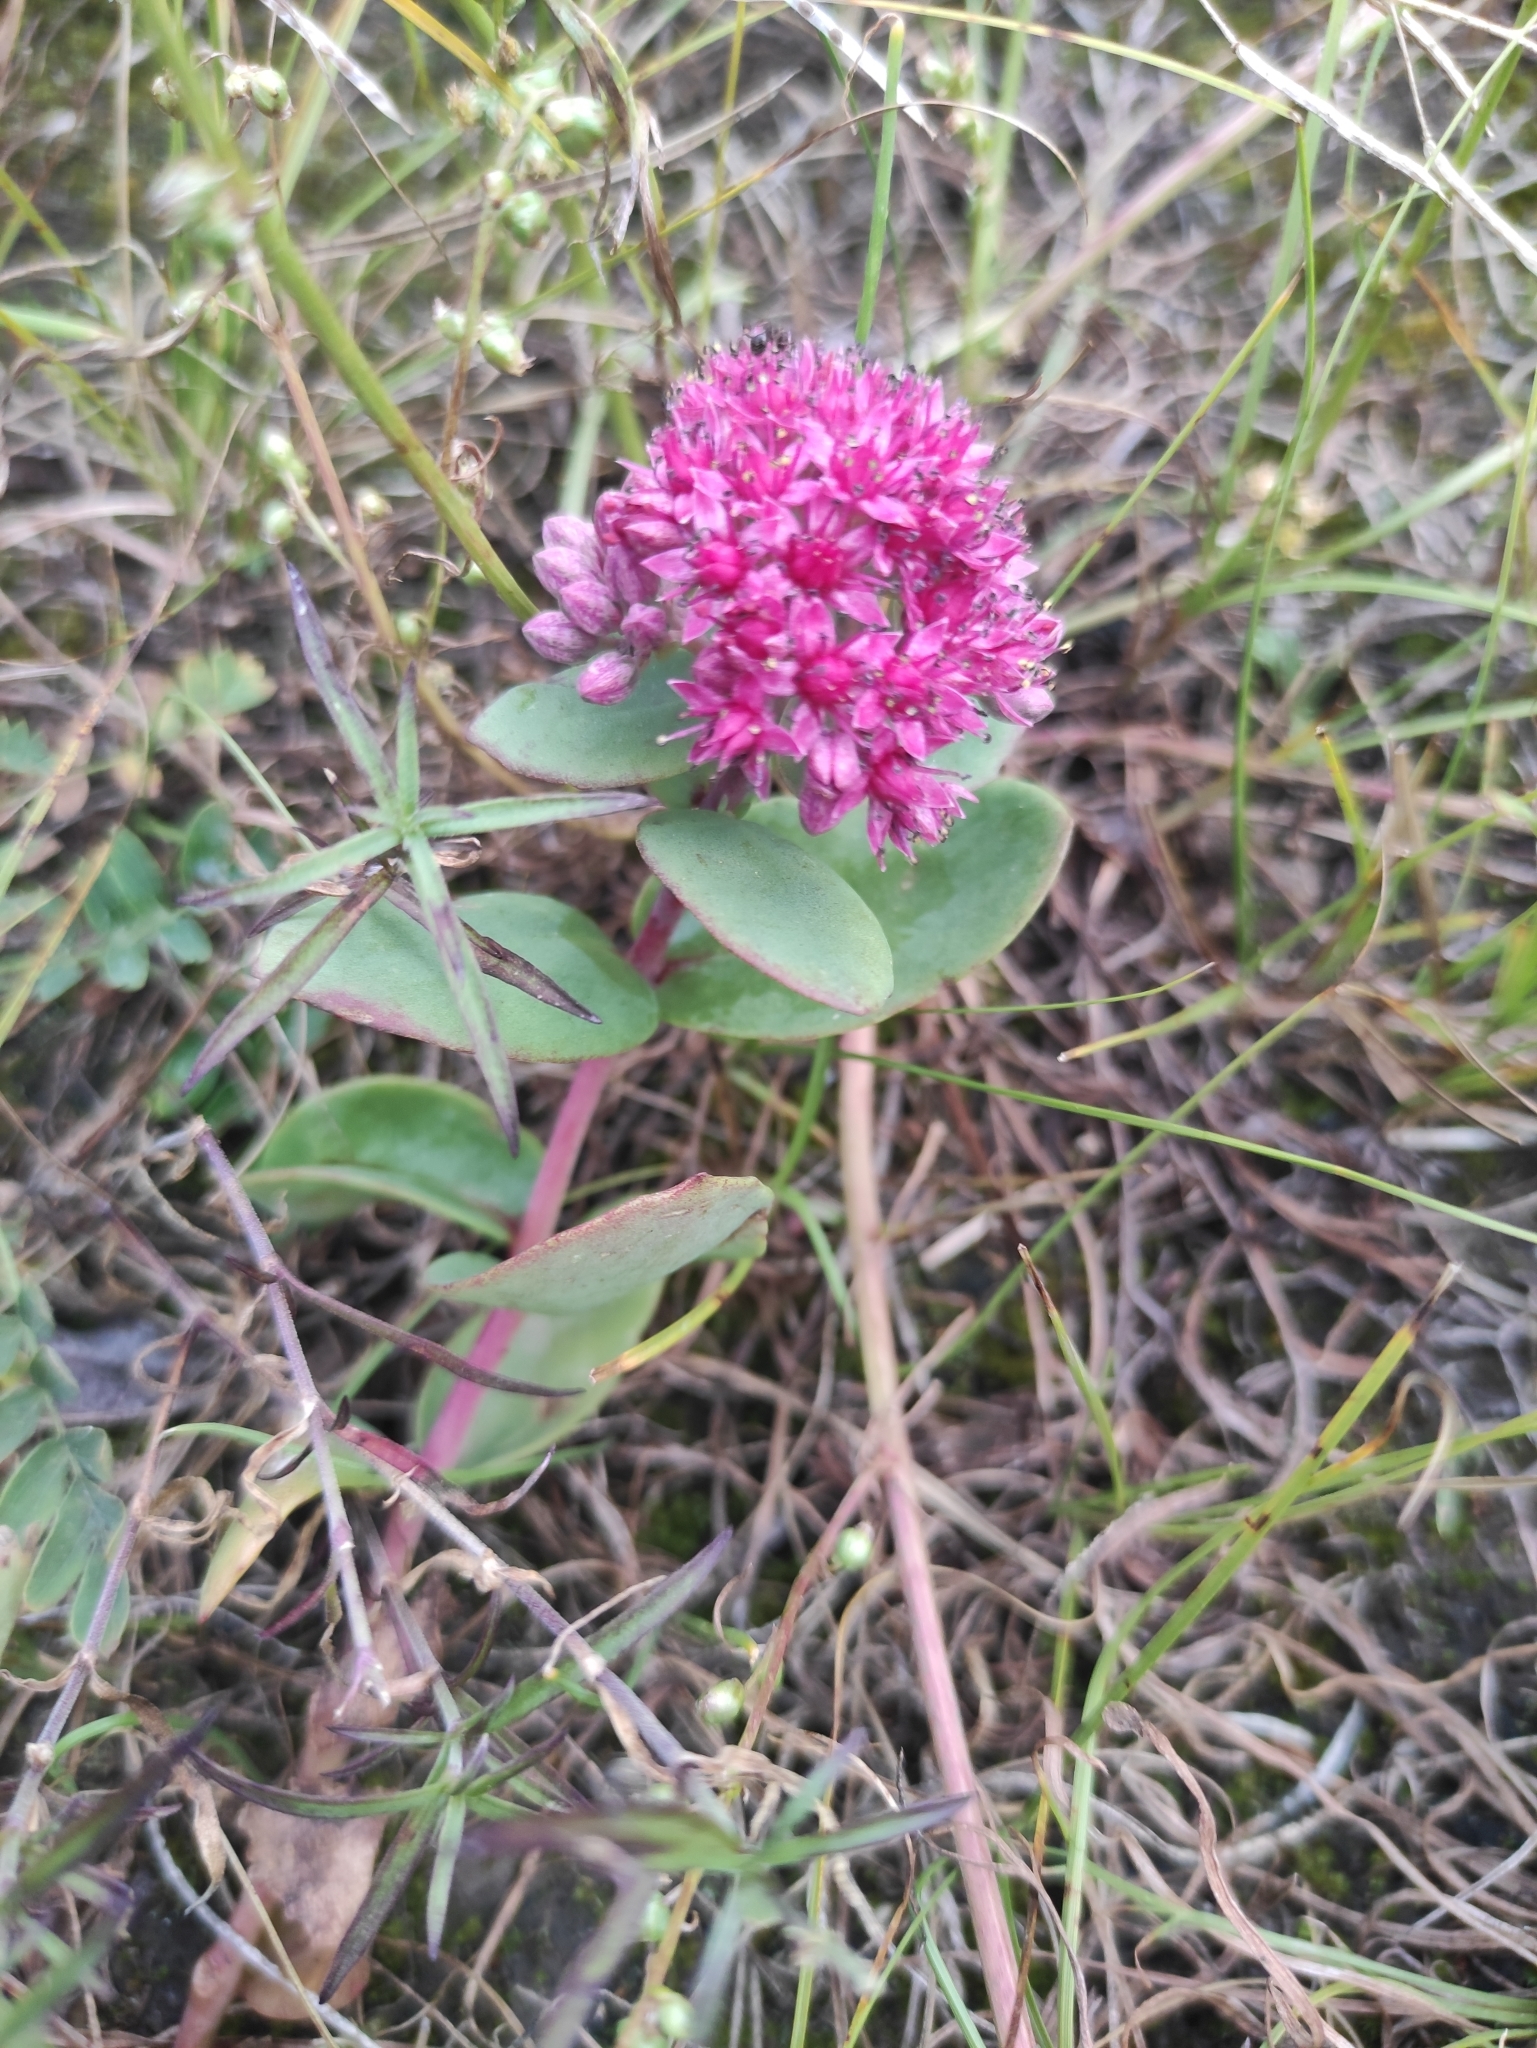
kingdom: Plantae
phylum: Tracheophyta
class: Magnoliopsida
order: Saxifragales
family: Crassulaceae
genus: Hylotelephium
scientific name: Hylotelephium telephium
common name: Live-forever
